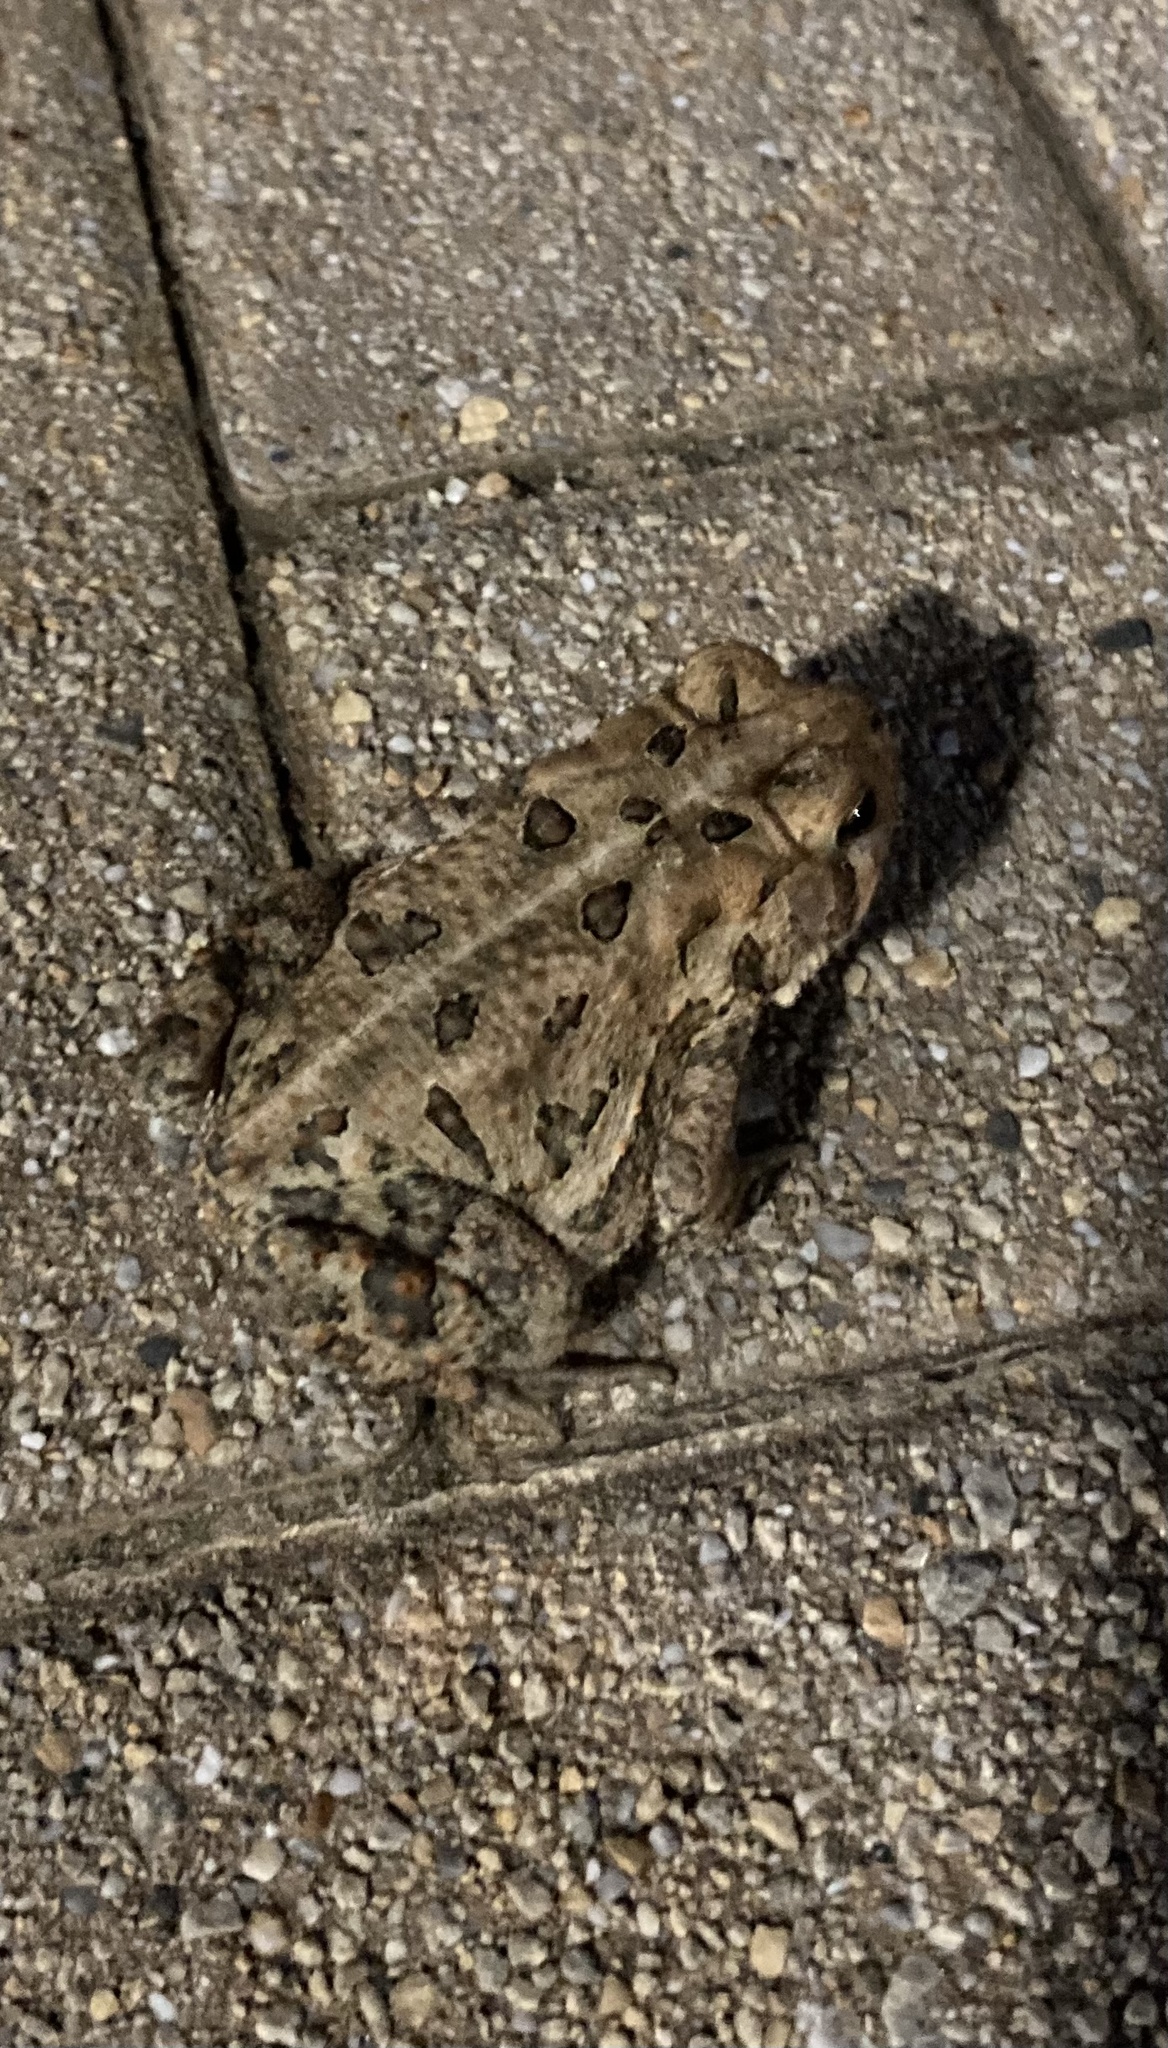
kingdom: Animalia
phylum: Chordata
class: Amphibia
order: Anura
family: Bufonidae
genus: Anaxyrus
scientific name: Anaxyrus americanus
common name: American toad
